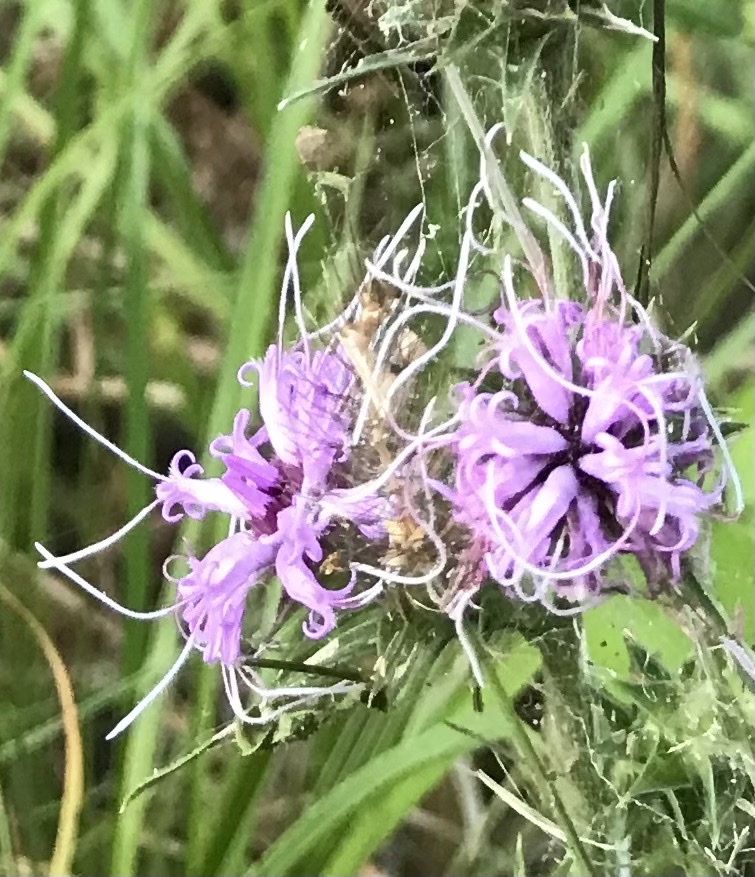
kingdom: Plantae
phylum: Tracheophyta
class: Magnoliopsida
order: Asterales
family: Asteraceae
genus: Liatris
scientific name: Liatris squarrosa
